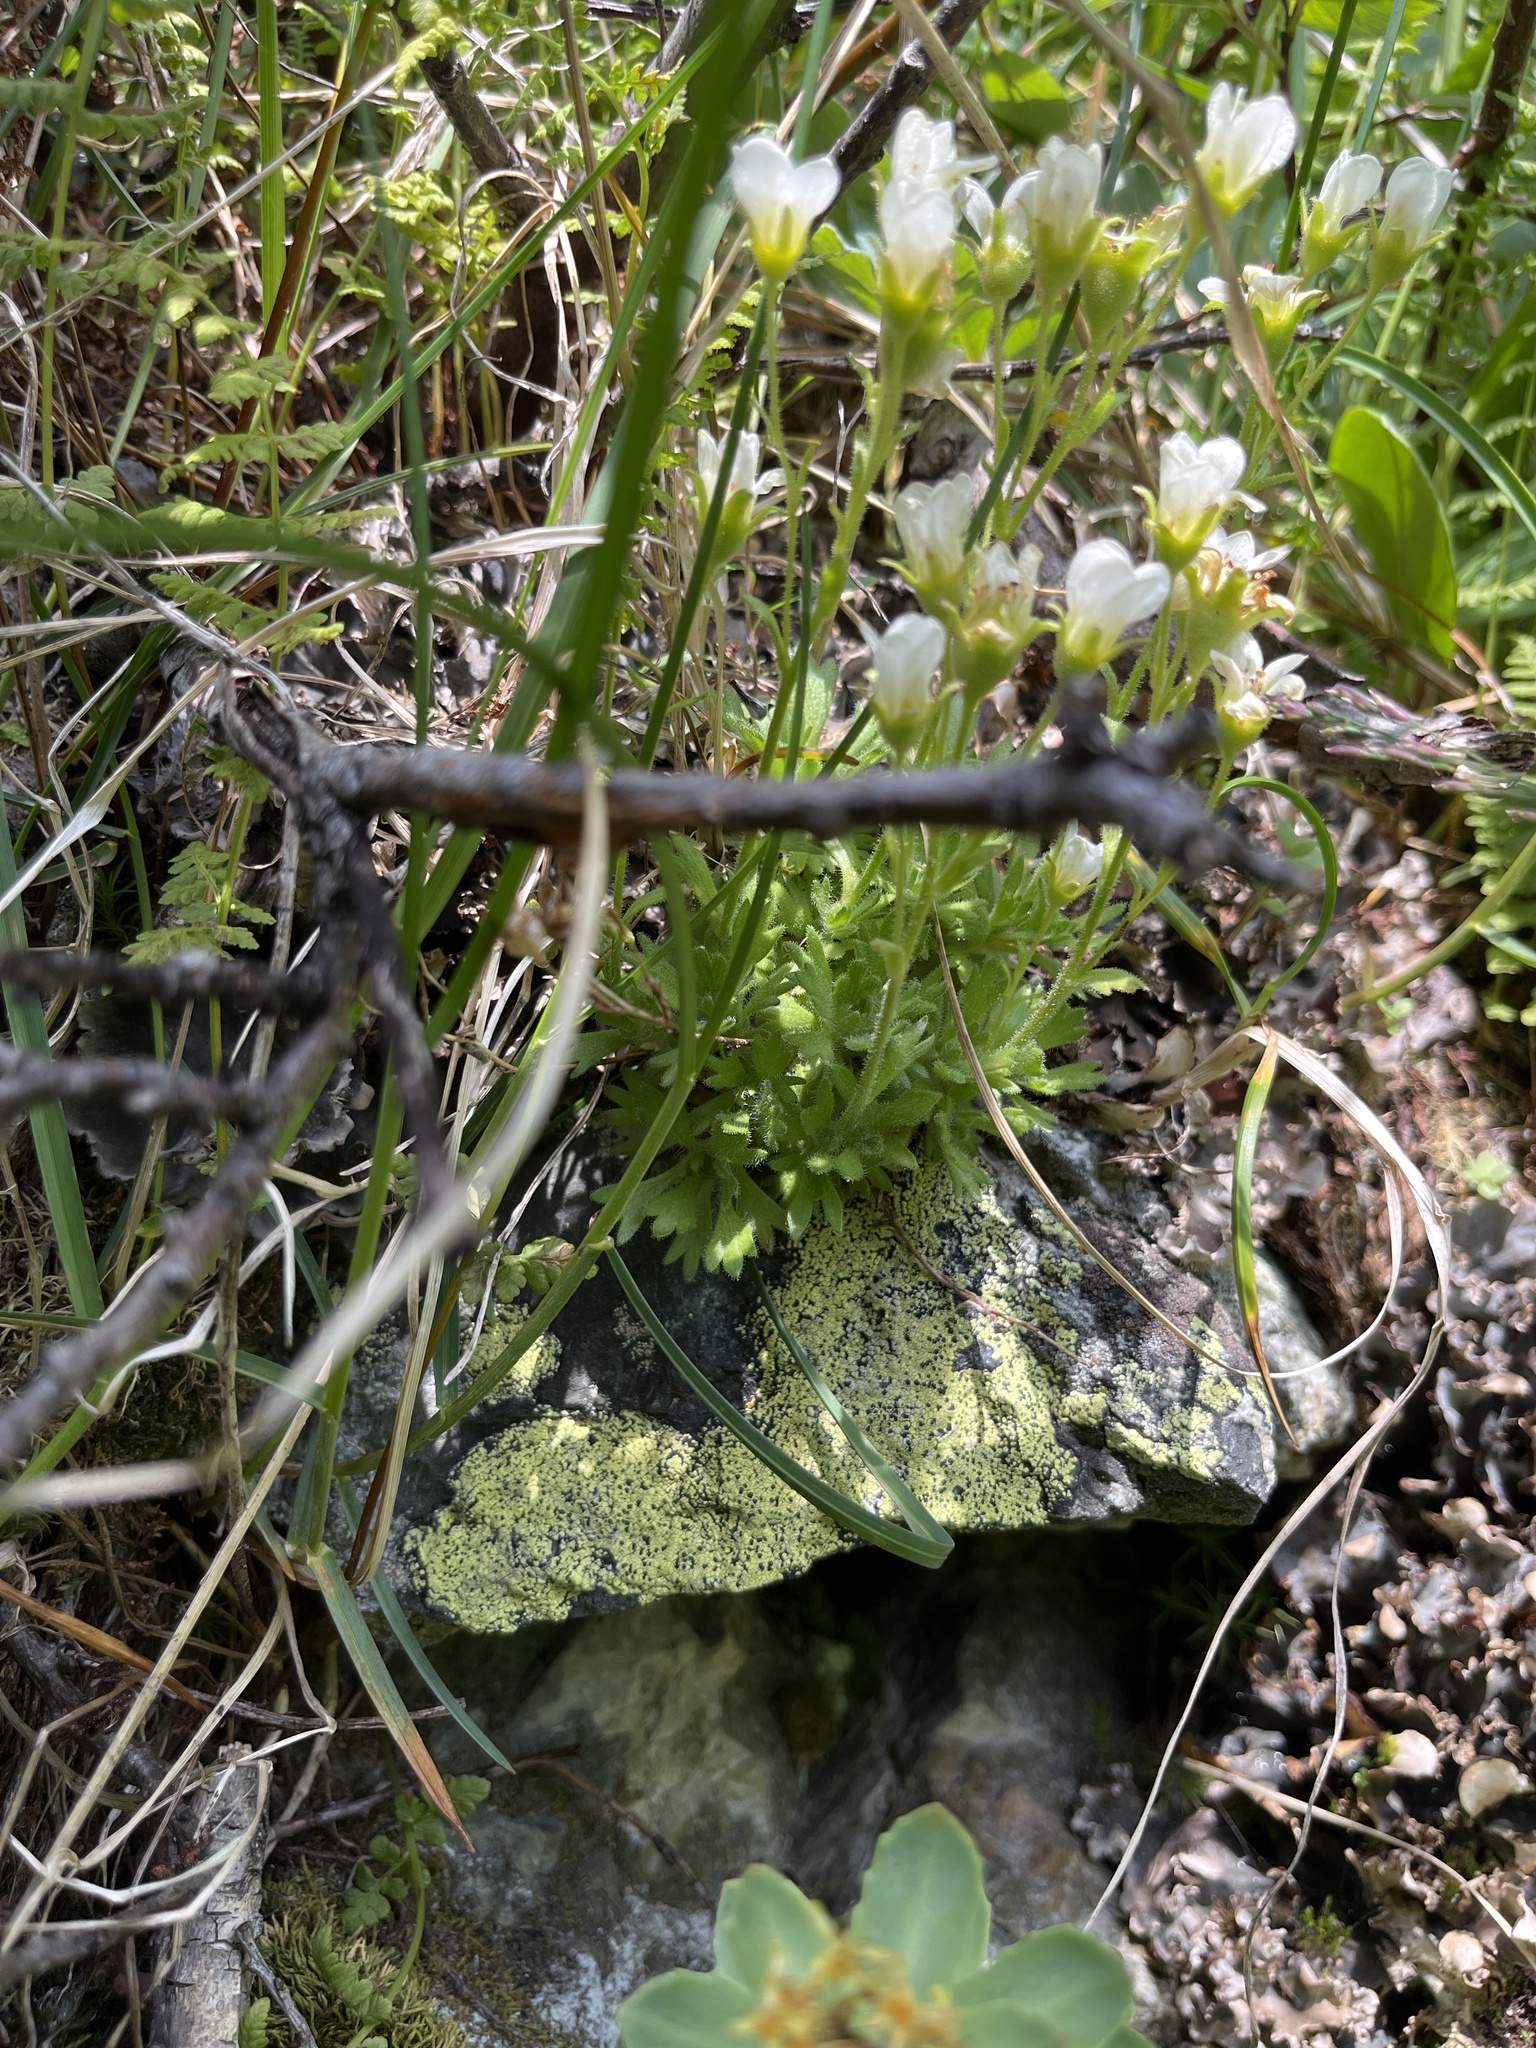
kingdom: Plantae
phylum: Tracheophyta
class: Magnoliopsida
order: Saxifragales
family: Saxifragaceae
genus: Saxifraga
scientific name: Saxifraga cespitosa
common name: Tufted saxifrage
